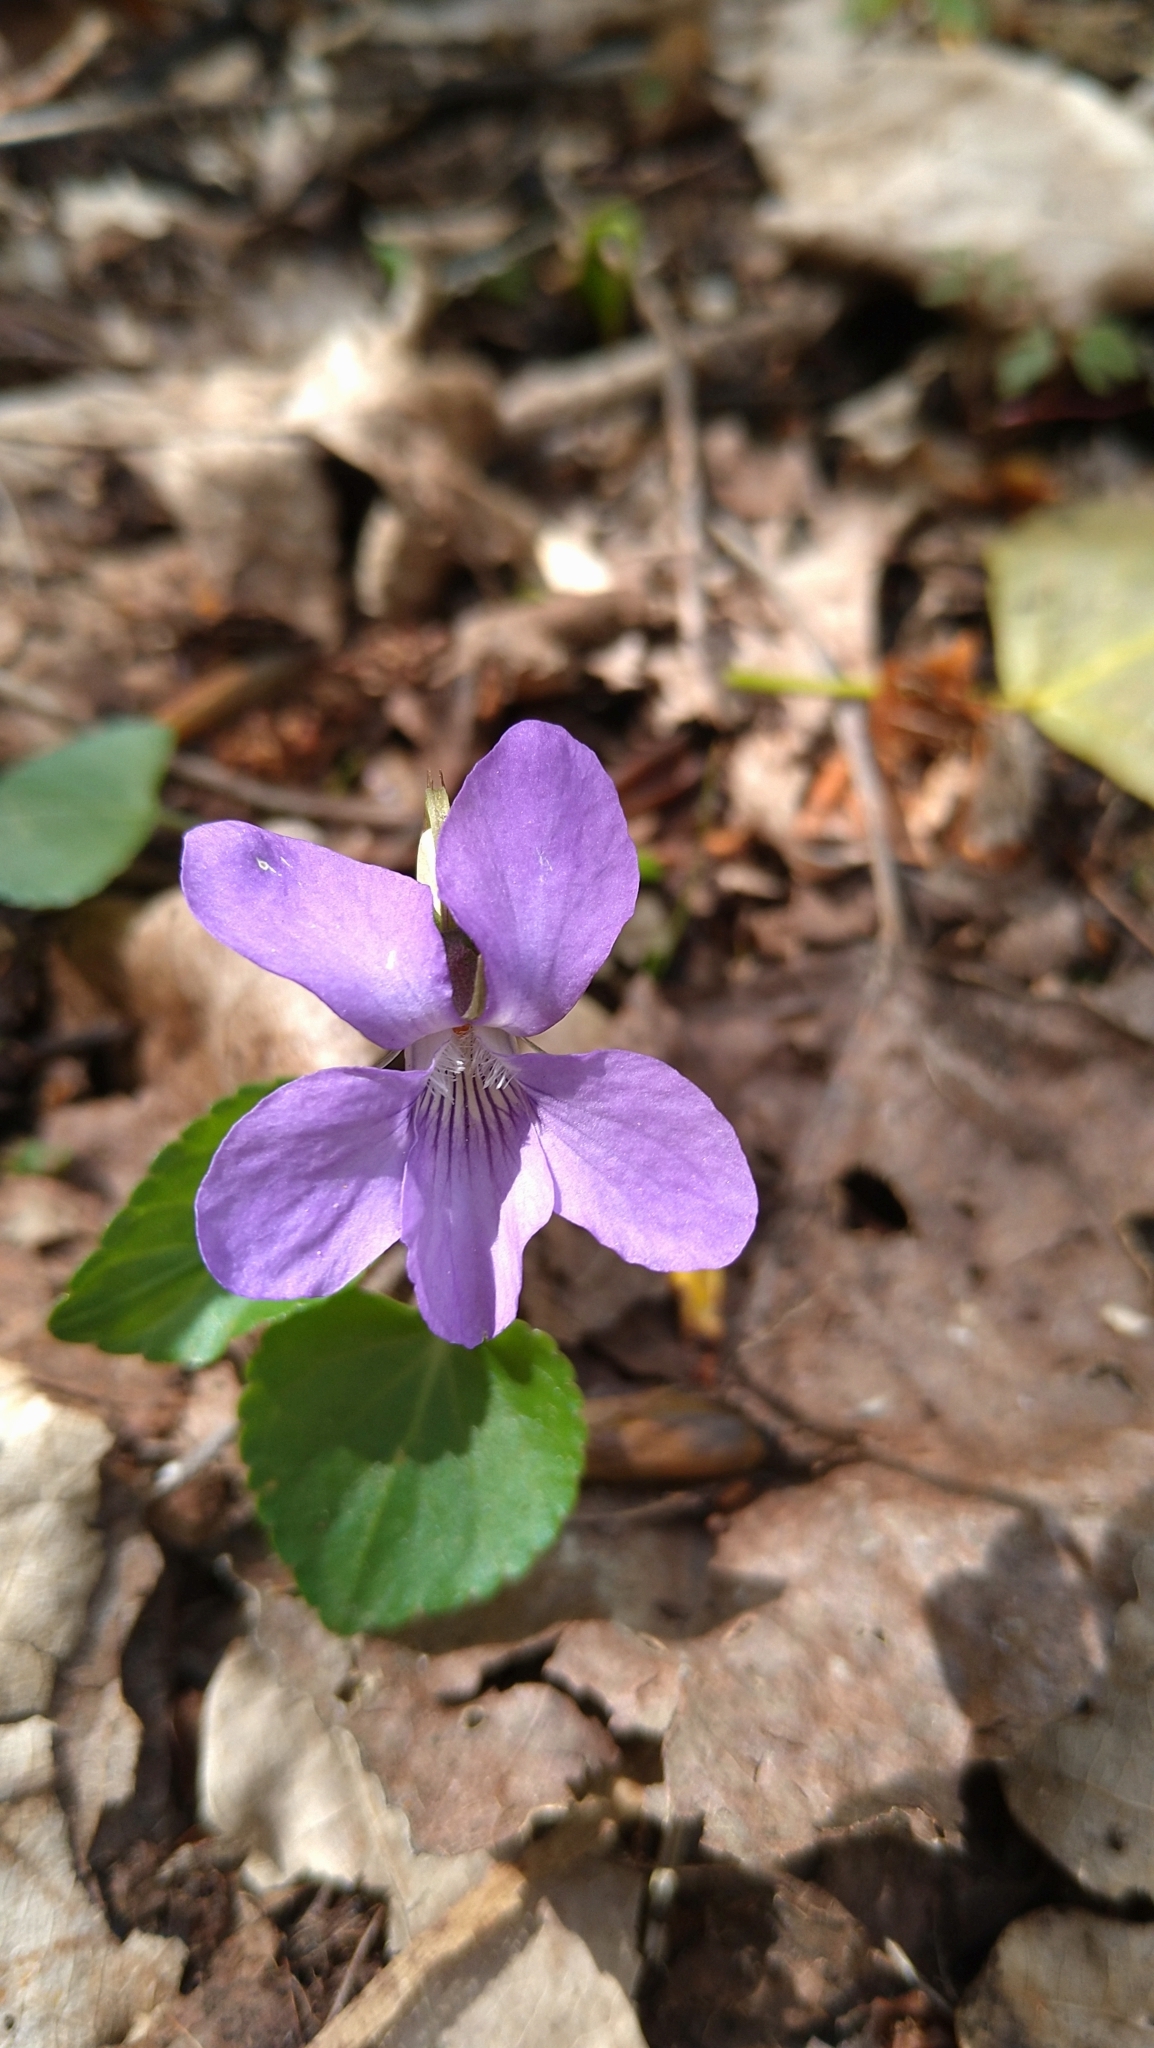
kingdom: Plantae
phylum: Tracheophyta
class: Magnoliopsida
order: Malpighiales
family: Violaceae
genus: Viola
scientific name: Viola reichenbachiana
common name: Early dog-violet
